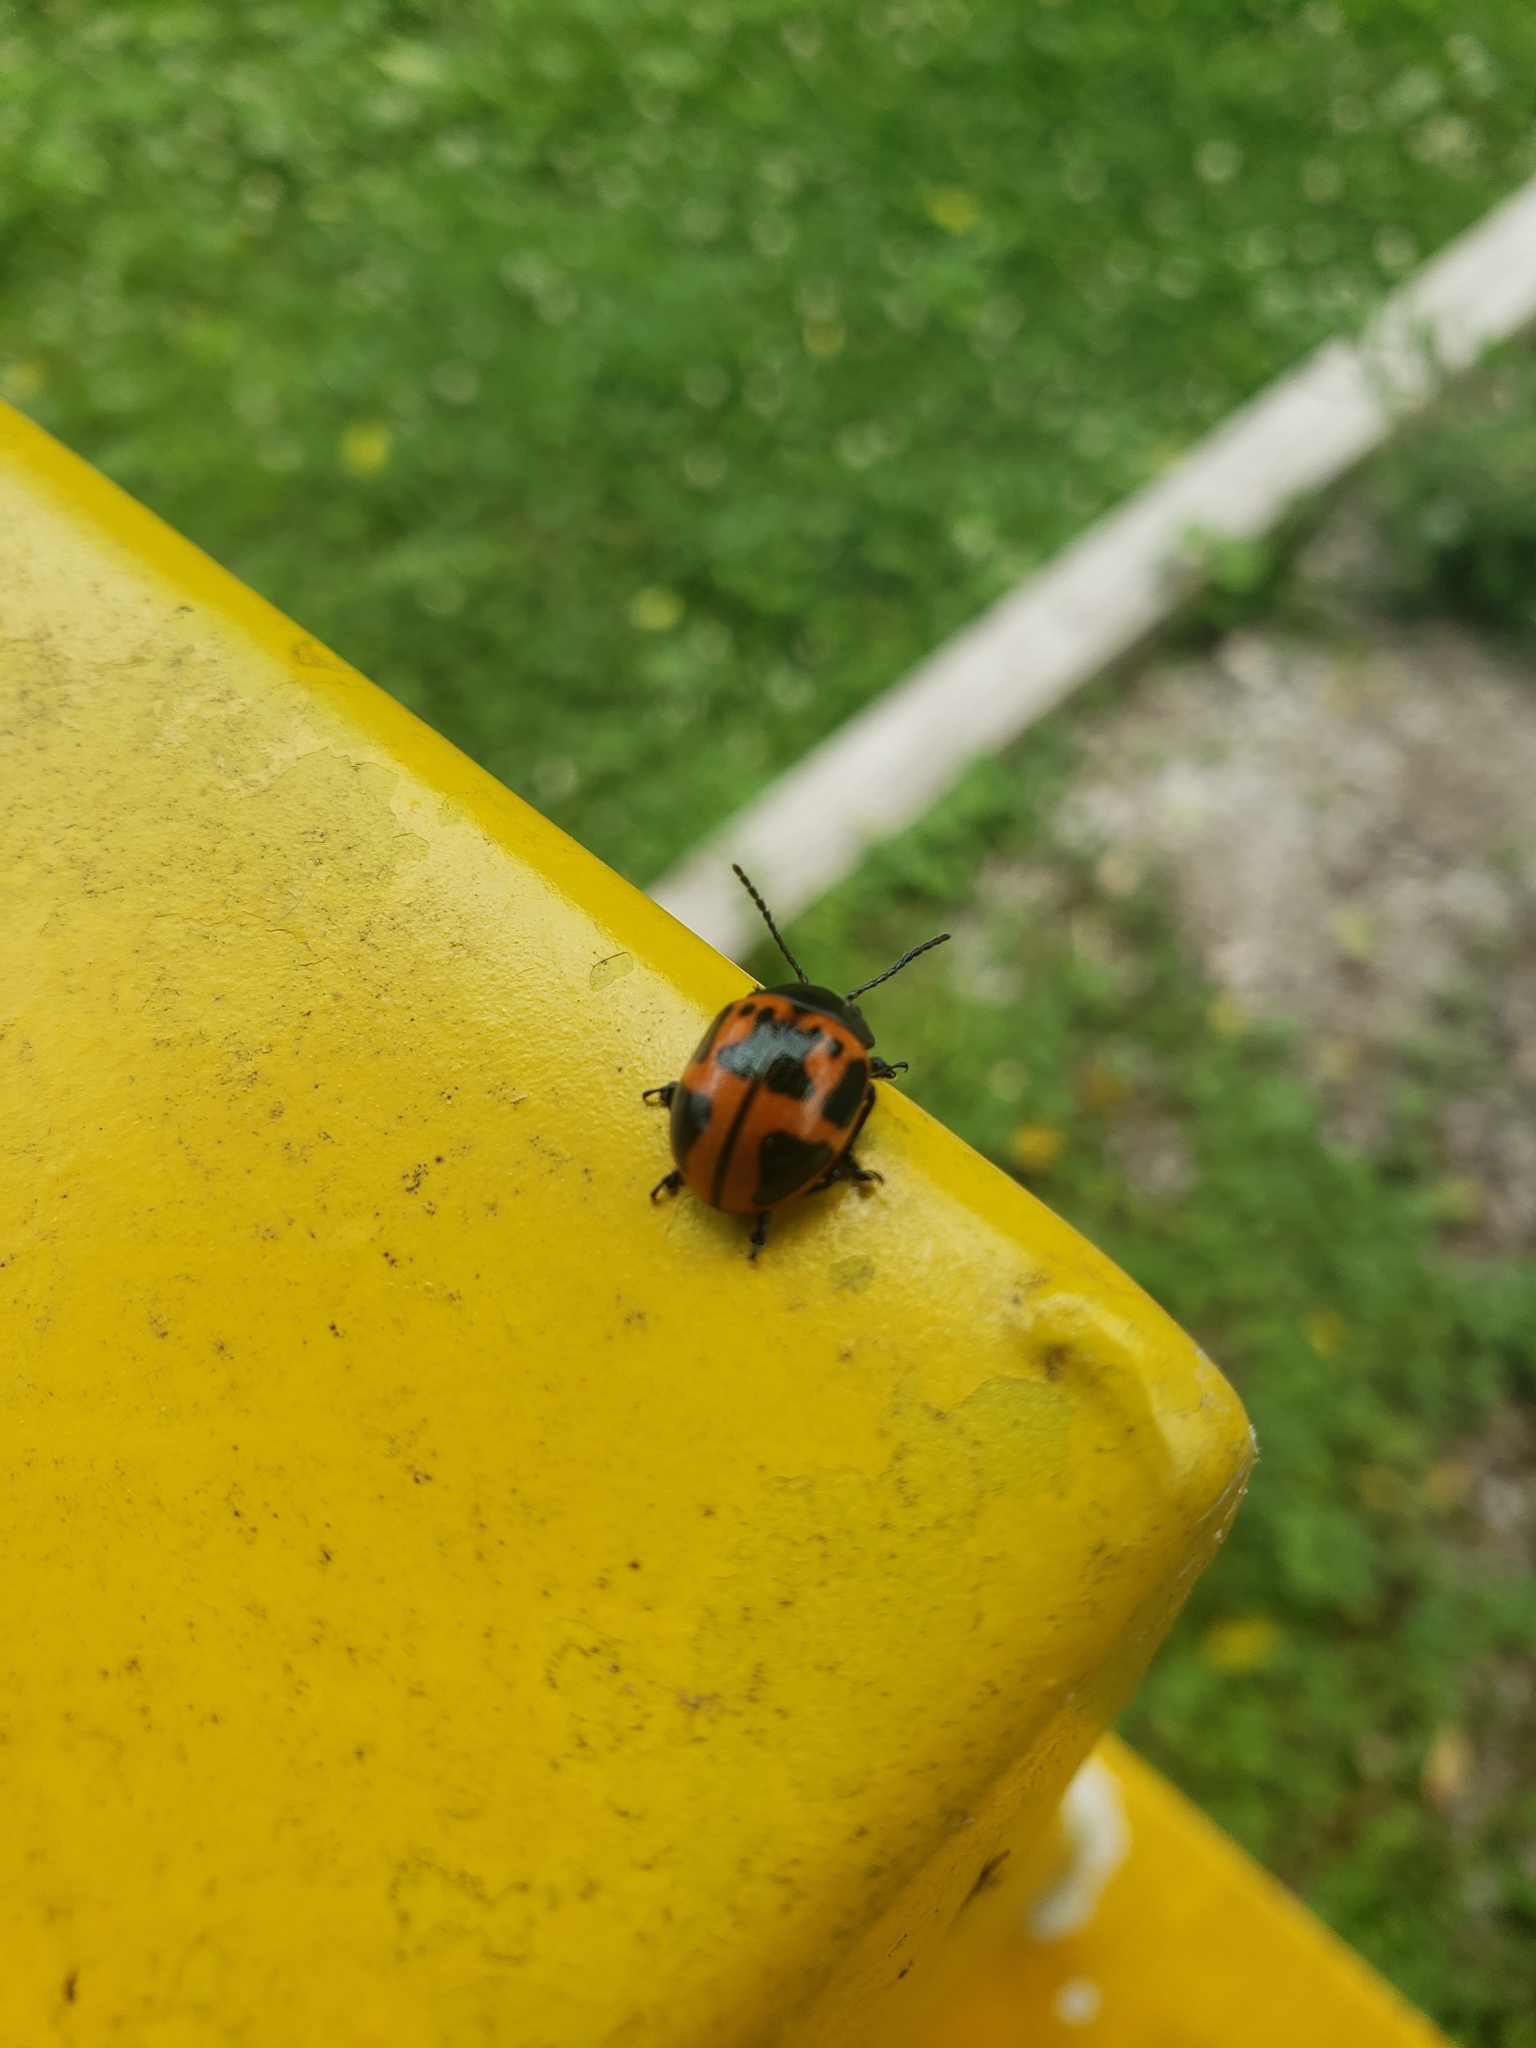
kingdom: Animalia
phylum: Arthropoda
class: Insecta
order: Coleoptera
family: Chrysomelidae
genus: Labidomera
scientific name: Labidomera clivicollis
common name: Swamp milkweed leaf beetle
